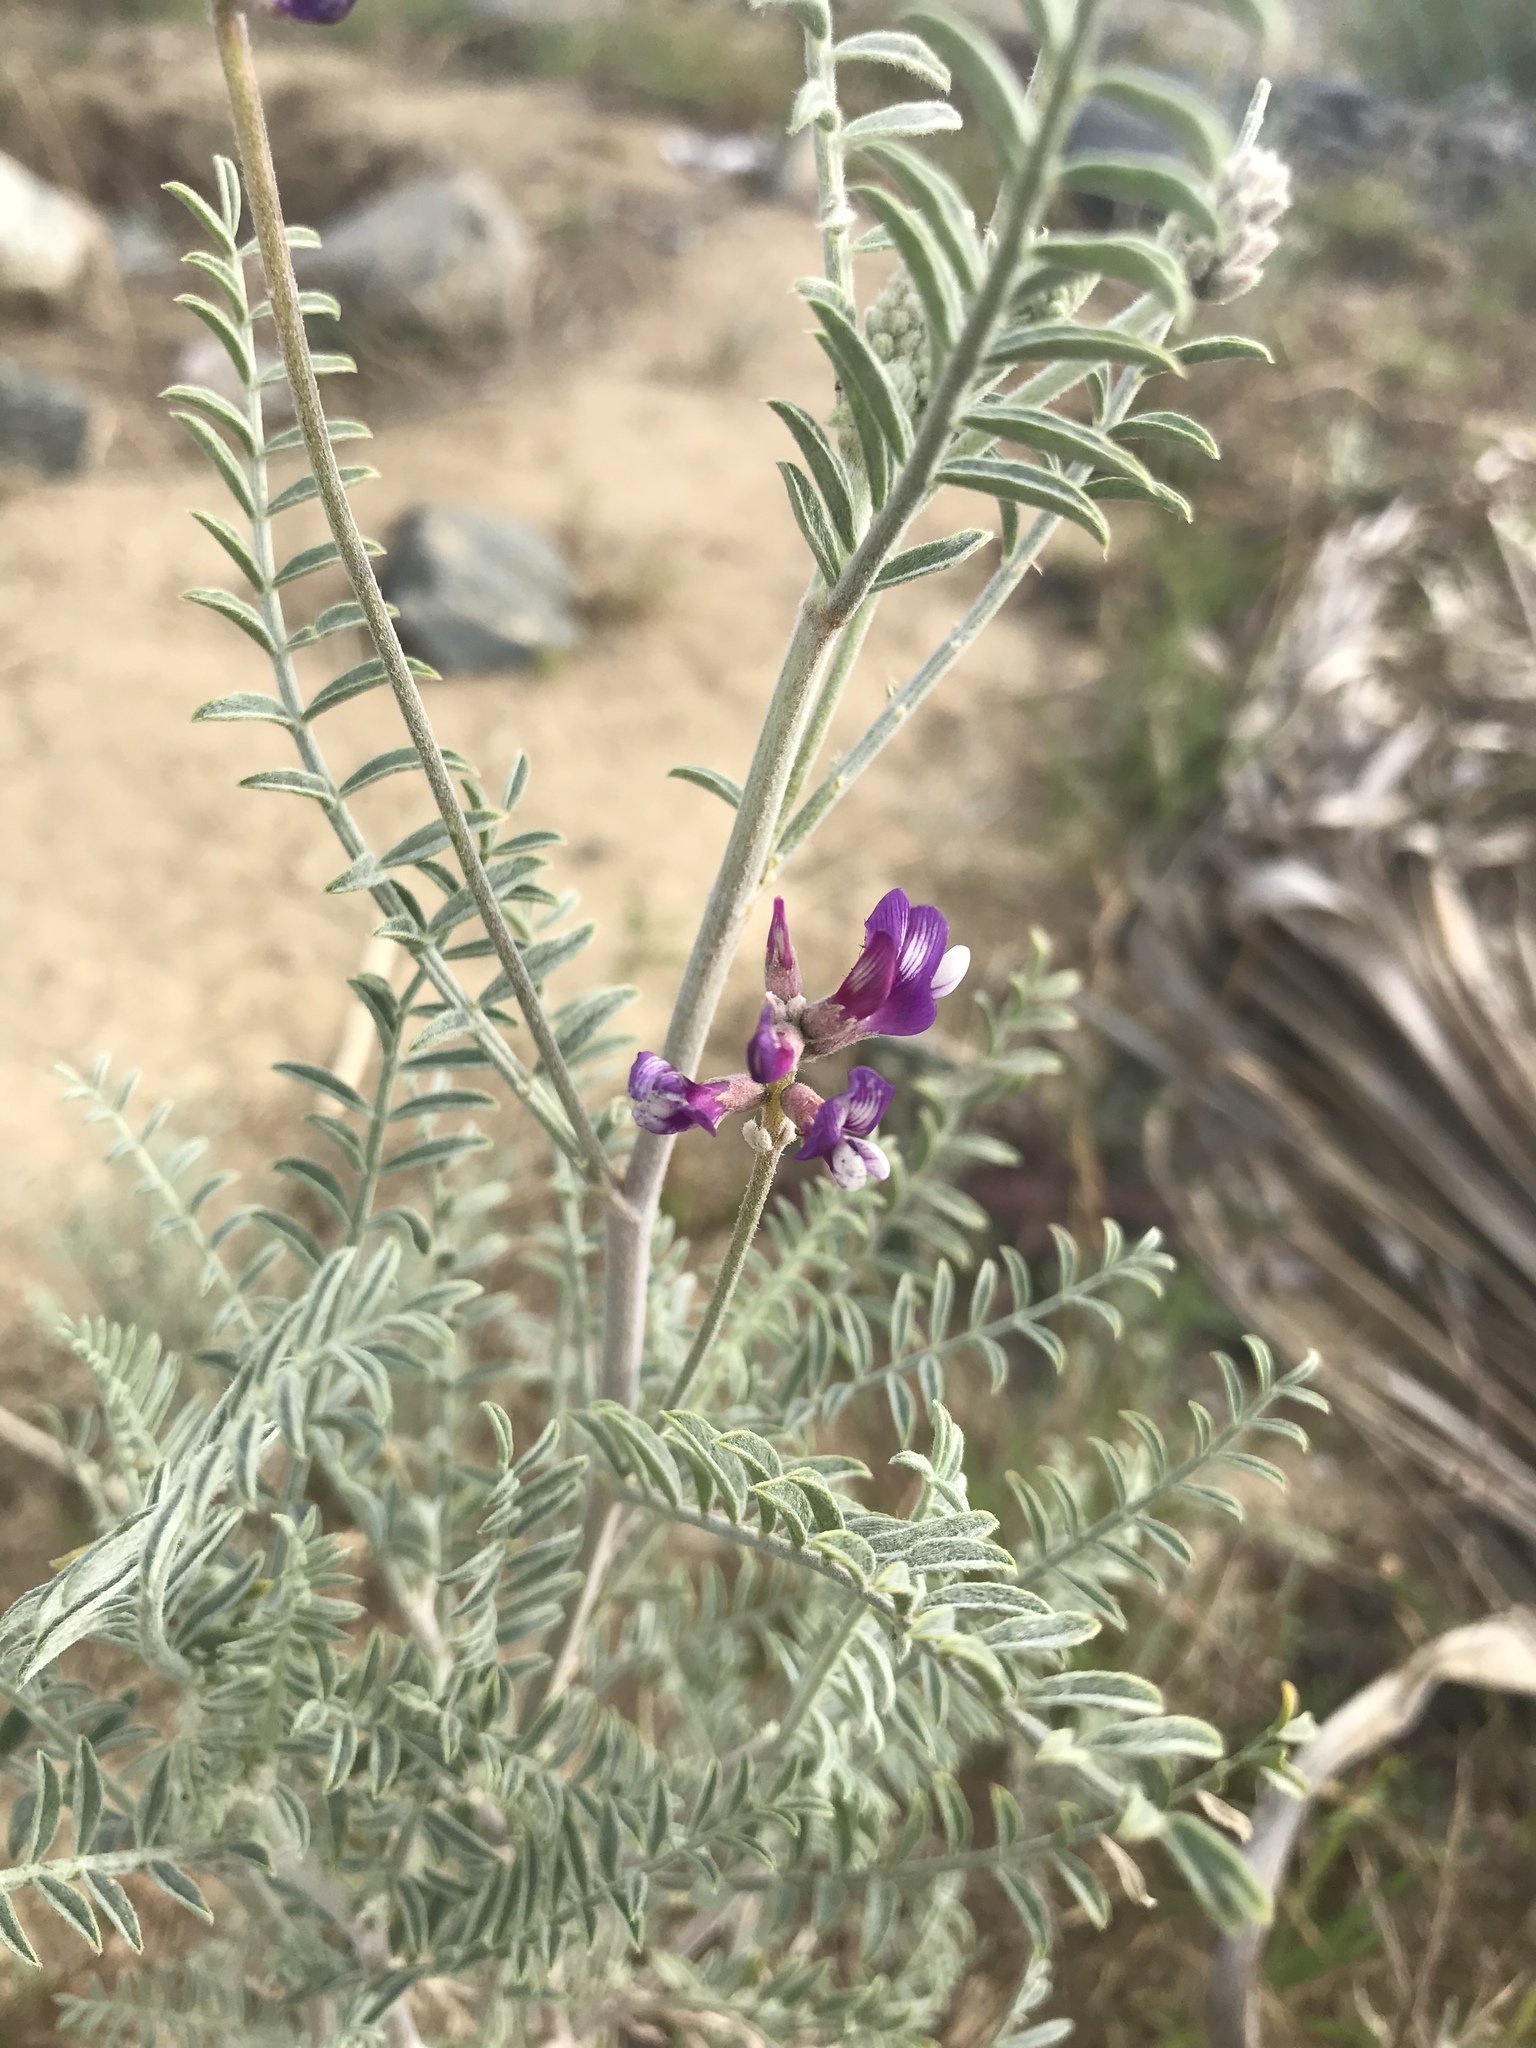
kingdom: Plantae
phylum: Tracheophyta
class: Magnoliopsida
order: Fabales
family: Fabaceae
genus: Astragalus
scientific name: Astragalus magdalenae
